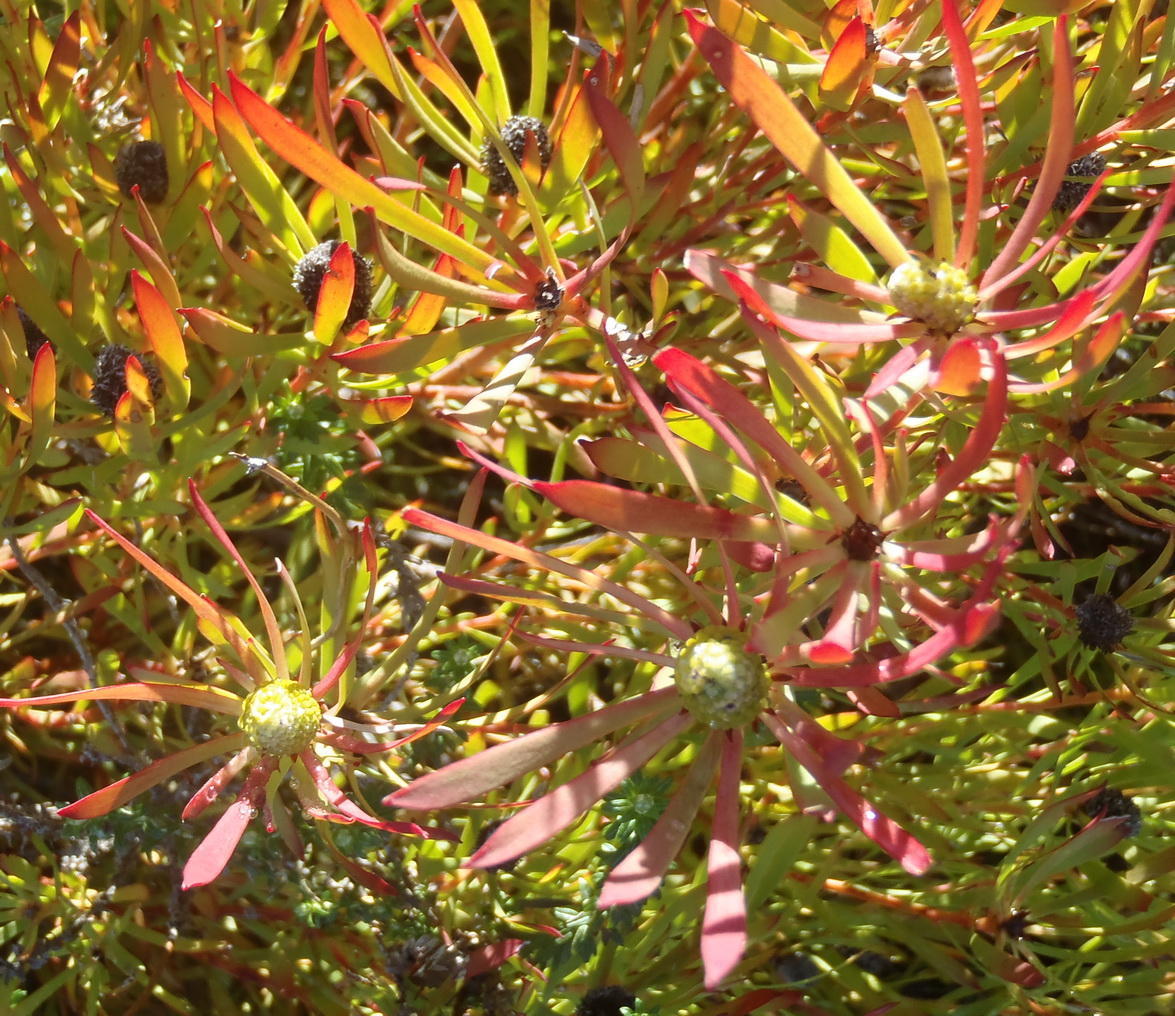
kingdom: Plantae
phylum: Tracheophyta
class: Magnoliopsida
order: Proteales
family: Proteaceae
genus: Leucadendron
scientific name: Leucadendron salignum
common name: Common sunshine conebush
